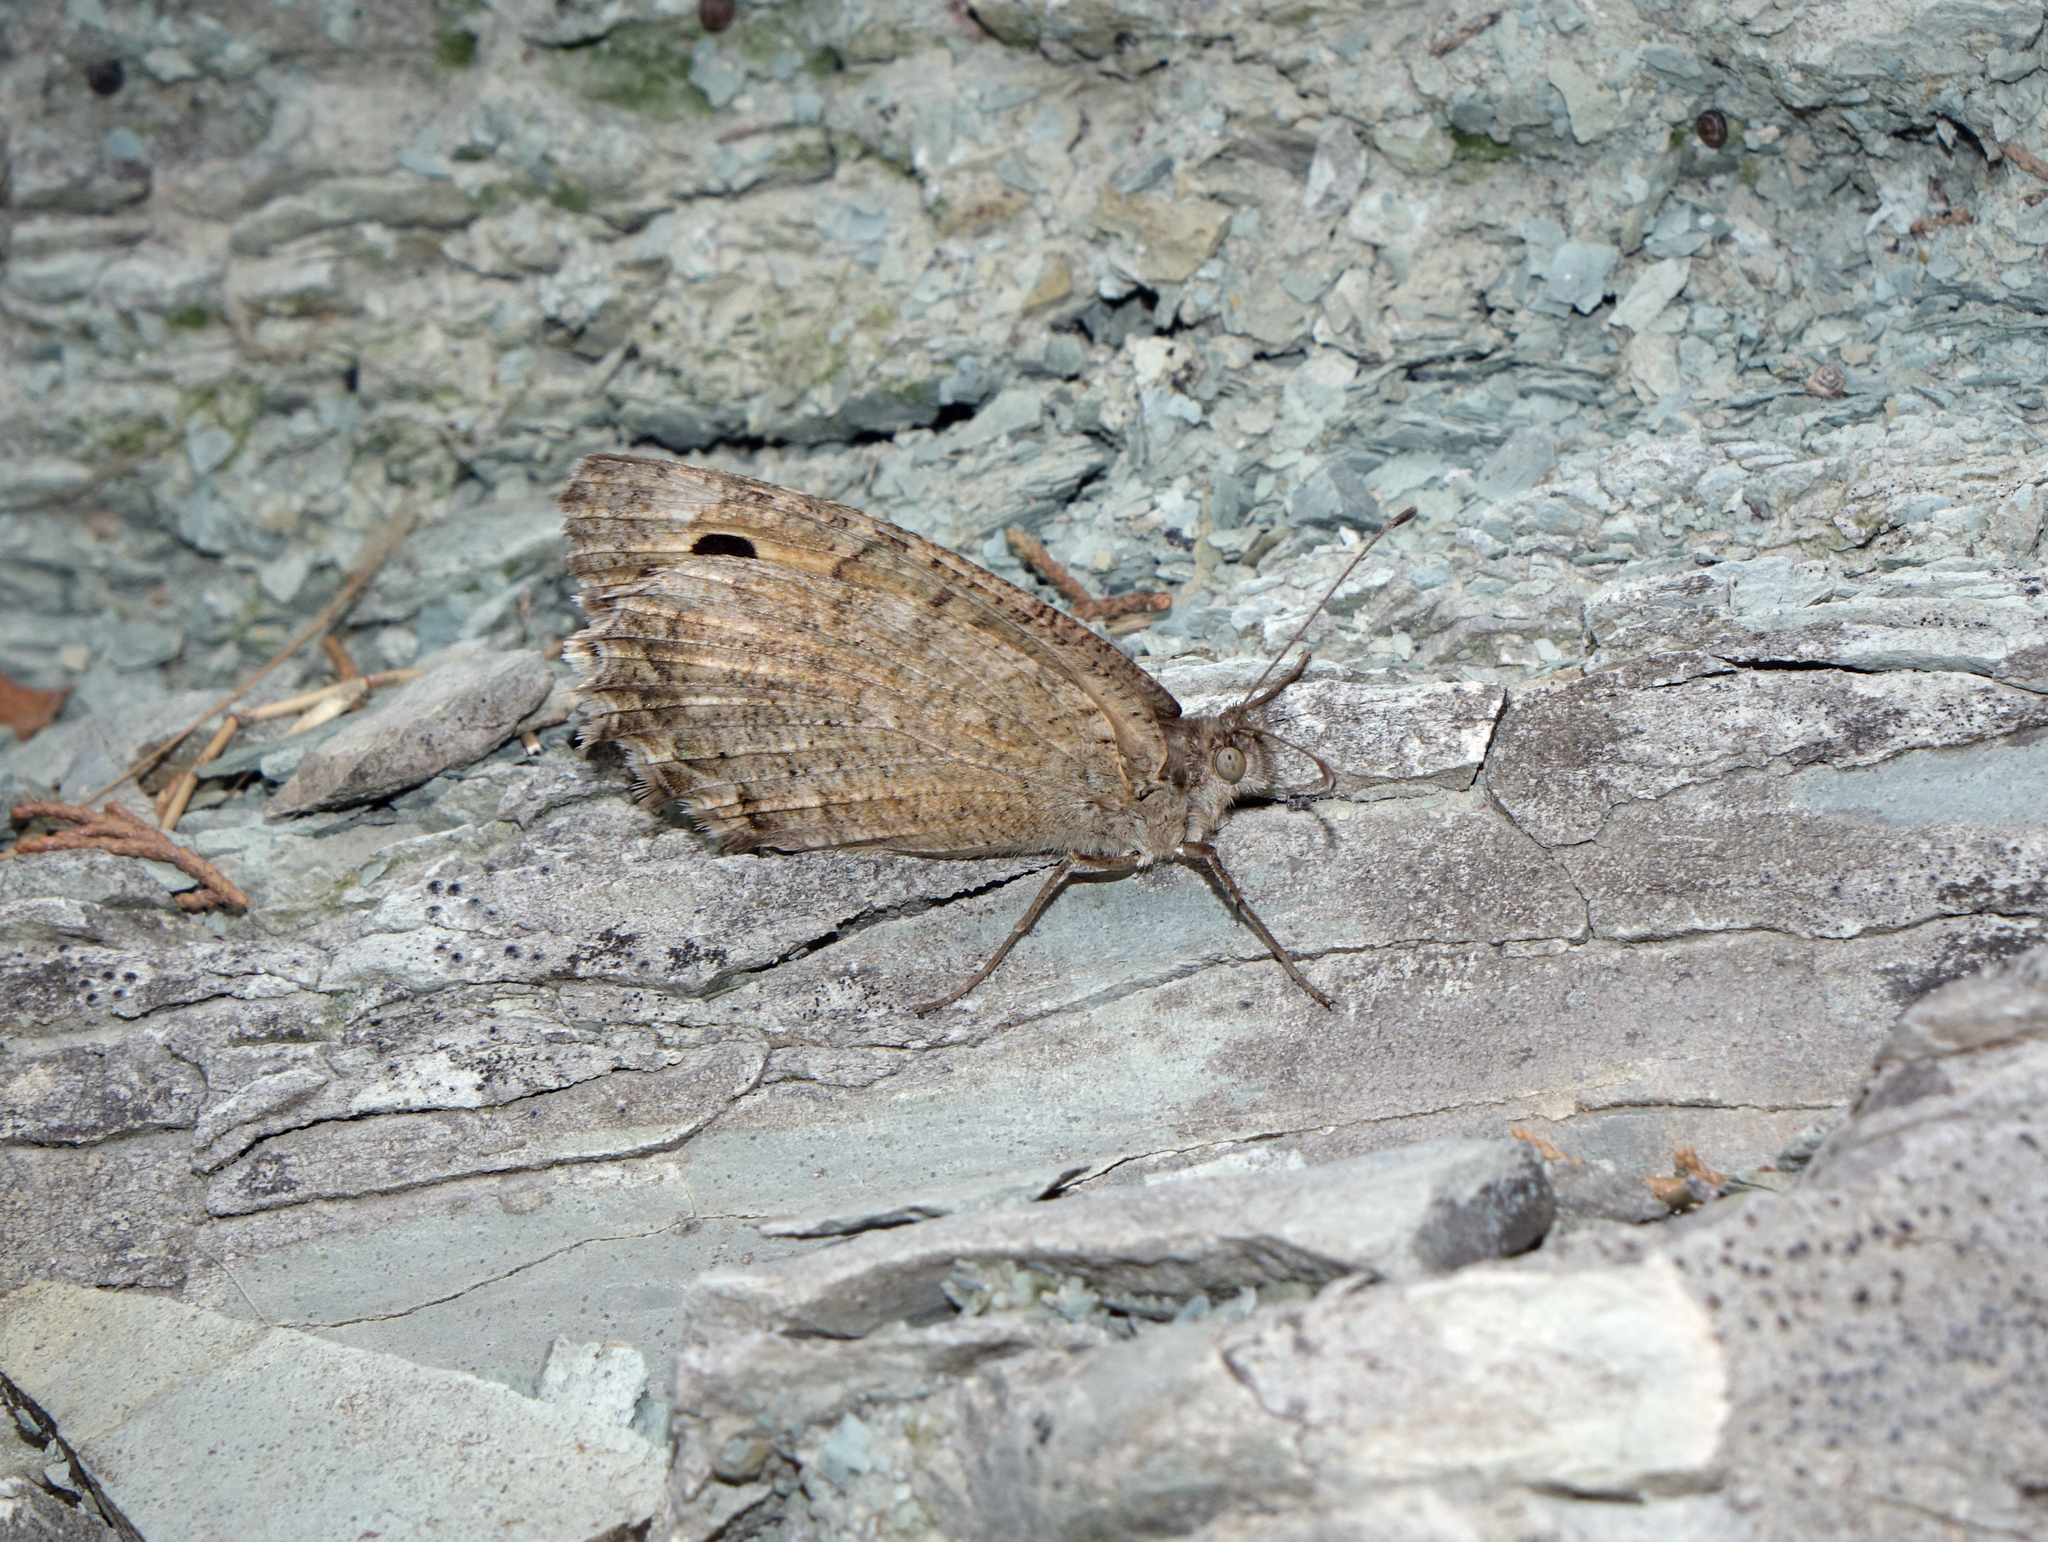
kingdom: Animalia
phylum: Arthropoda
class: Insecta
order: Lepidoptera
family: Nymphalidae
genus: Pseudochazara
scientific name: Pseudochazara pelopea
